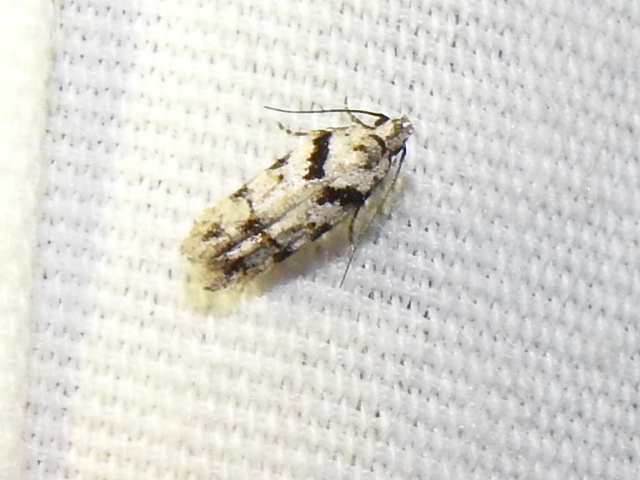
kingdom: Animalia
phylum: Arthropoda
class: Insecta
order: Lepidoptera
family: Gelechiidae
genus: Pseudotelphusa
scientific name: Pseudotelphusa palliderosacella
